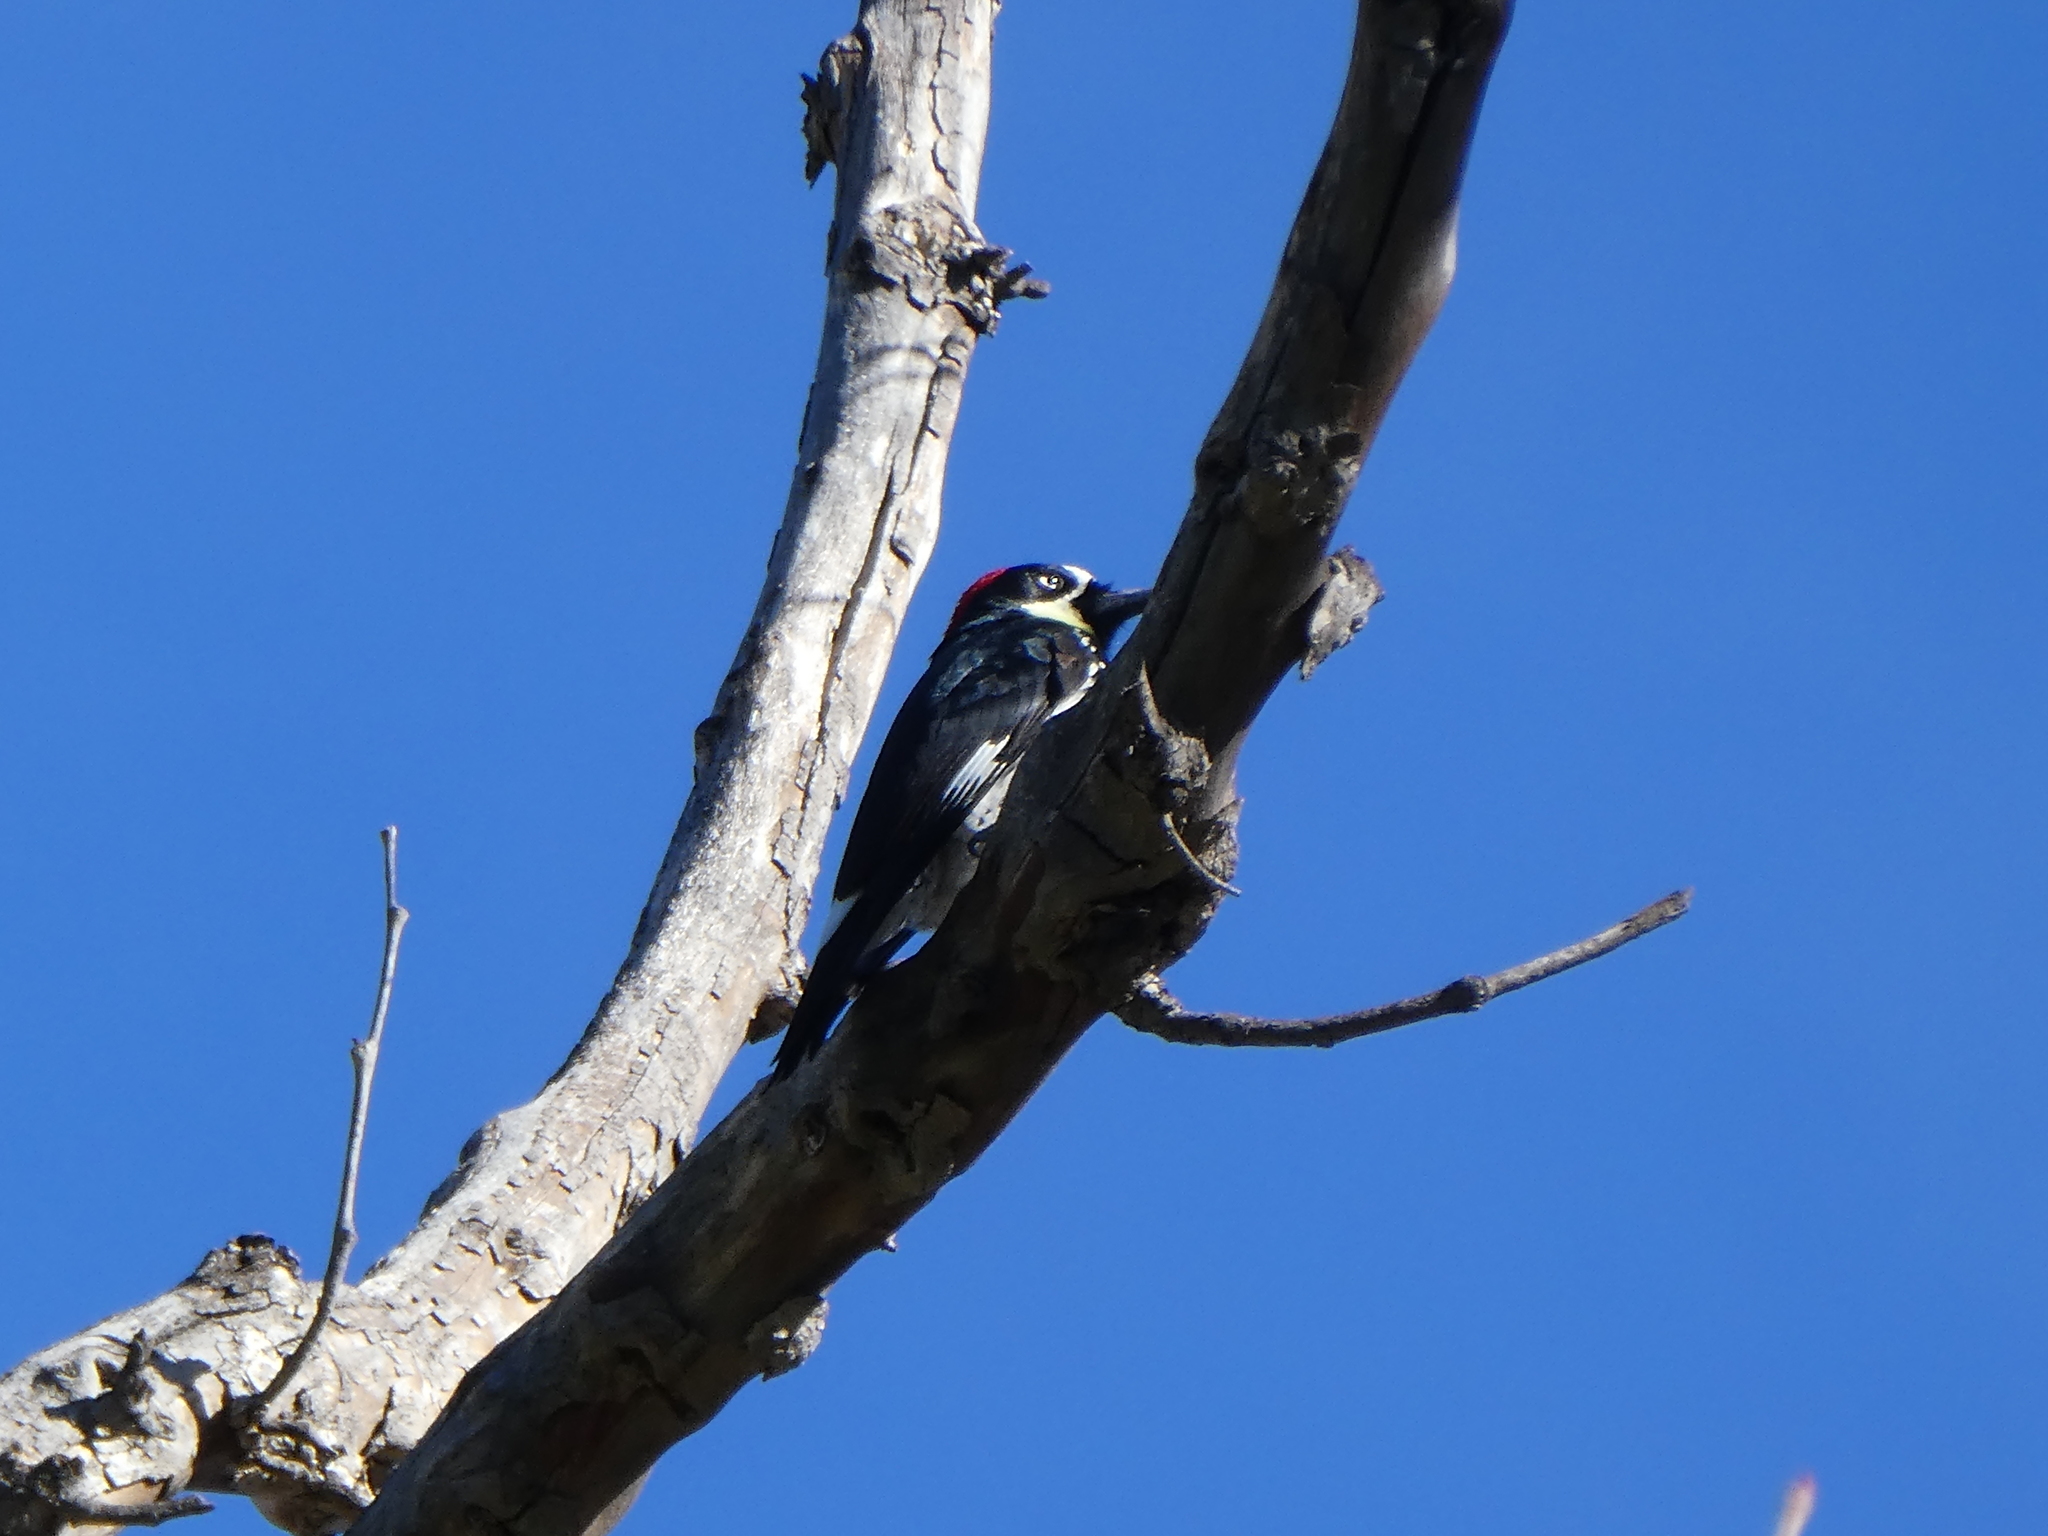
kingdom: Animalia
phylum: Chordata
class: Aves
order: Piciformes
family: Picidae
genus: Melanerpes
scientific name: Melanerpes formicivorus
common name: Acorn woodpecker
